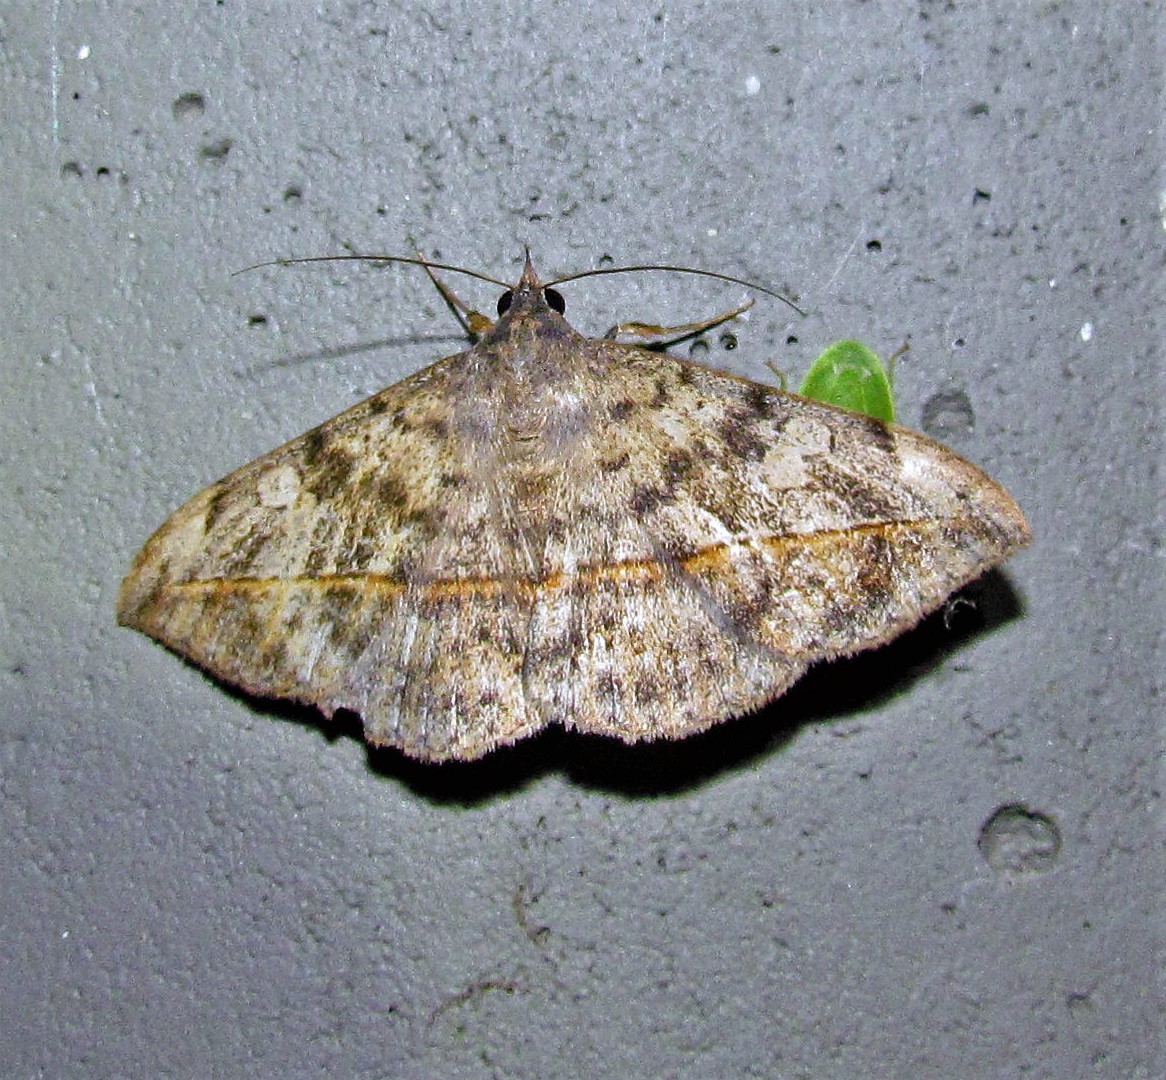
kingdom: Animalia
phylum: Arthropoda
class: Insecta
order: Lepidoptera
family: Erebidae
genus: Anticarsia
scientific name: Anticarsia gemmatalis
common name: Cutworm moth
